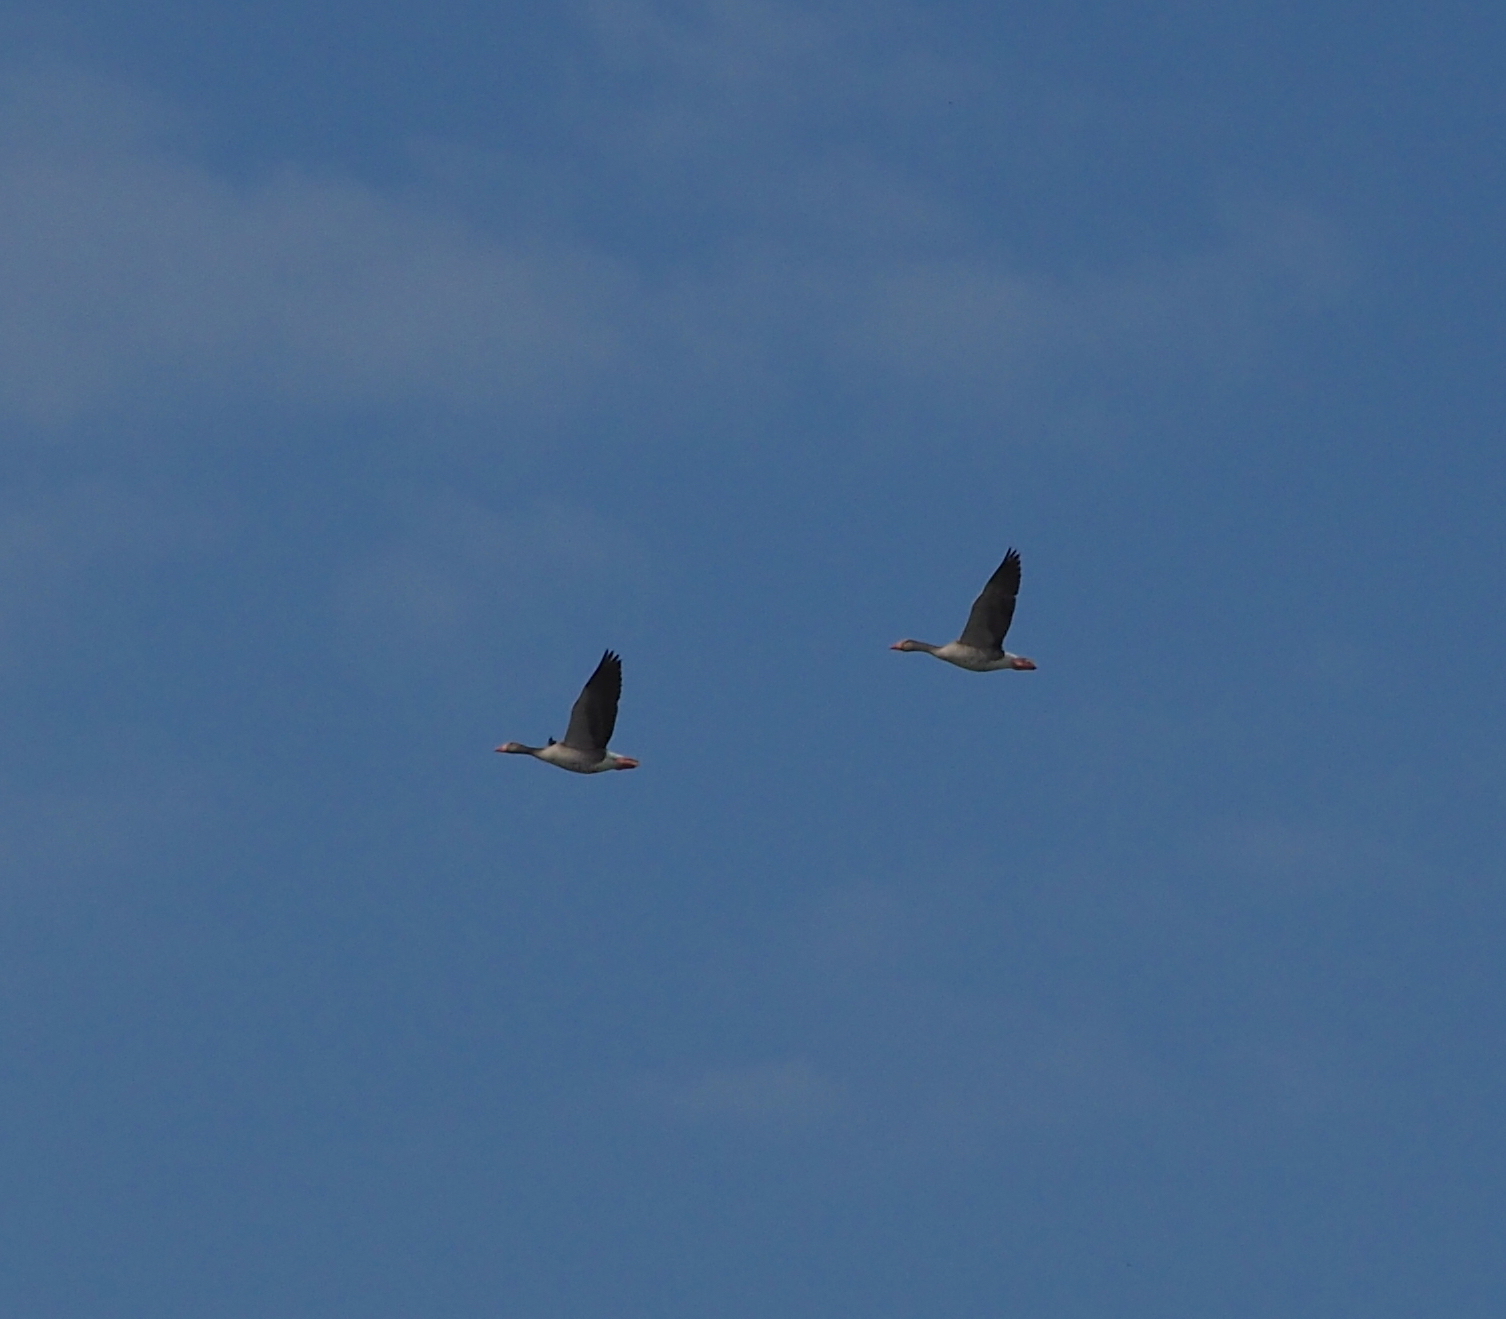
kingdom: Animalia
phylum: Chordata
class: Aves
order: Anseriformes
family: Anatidae
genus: Anser
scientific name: Anser anser
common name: Greylag goose
